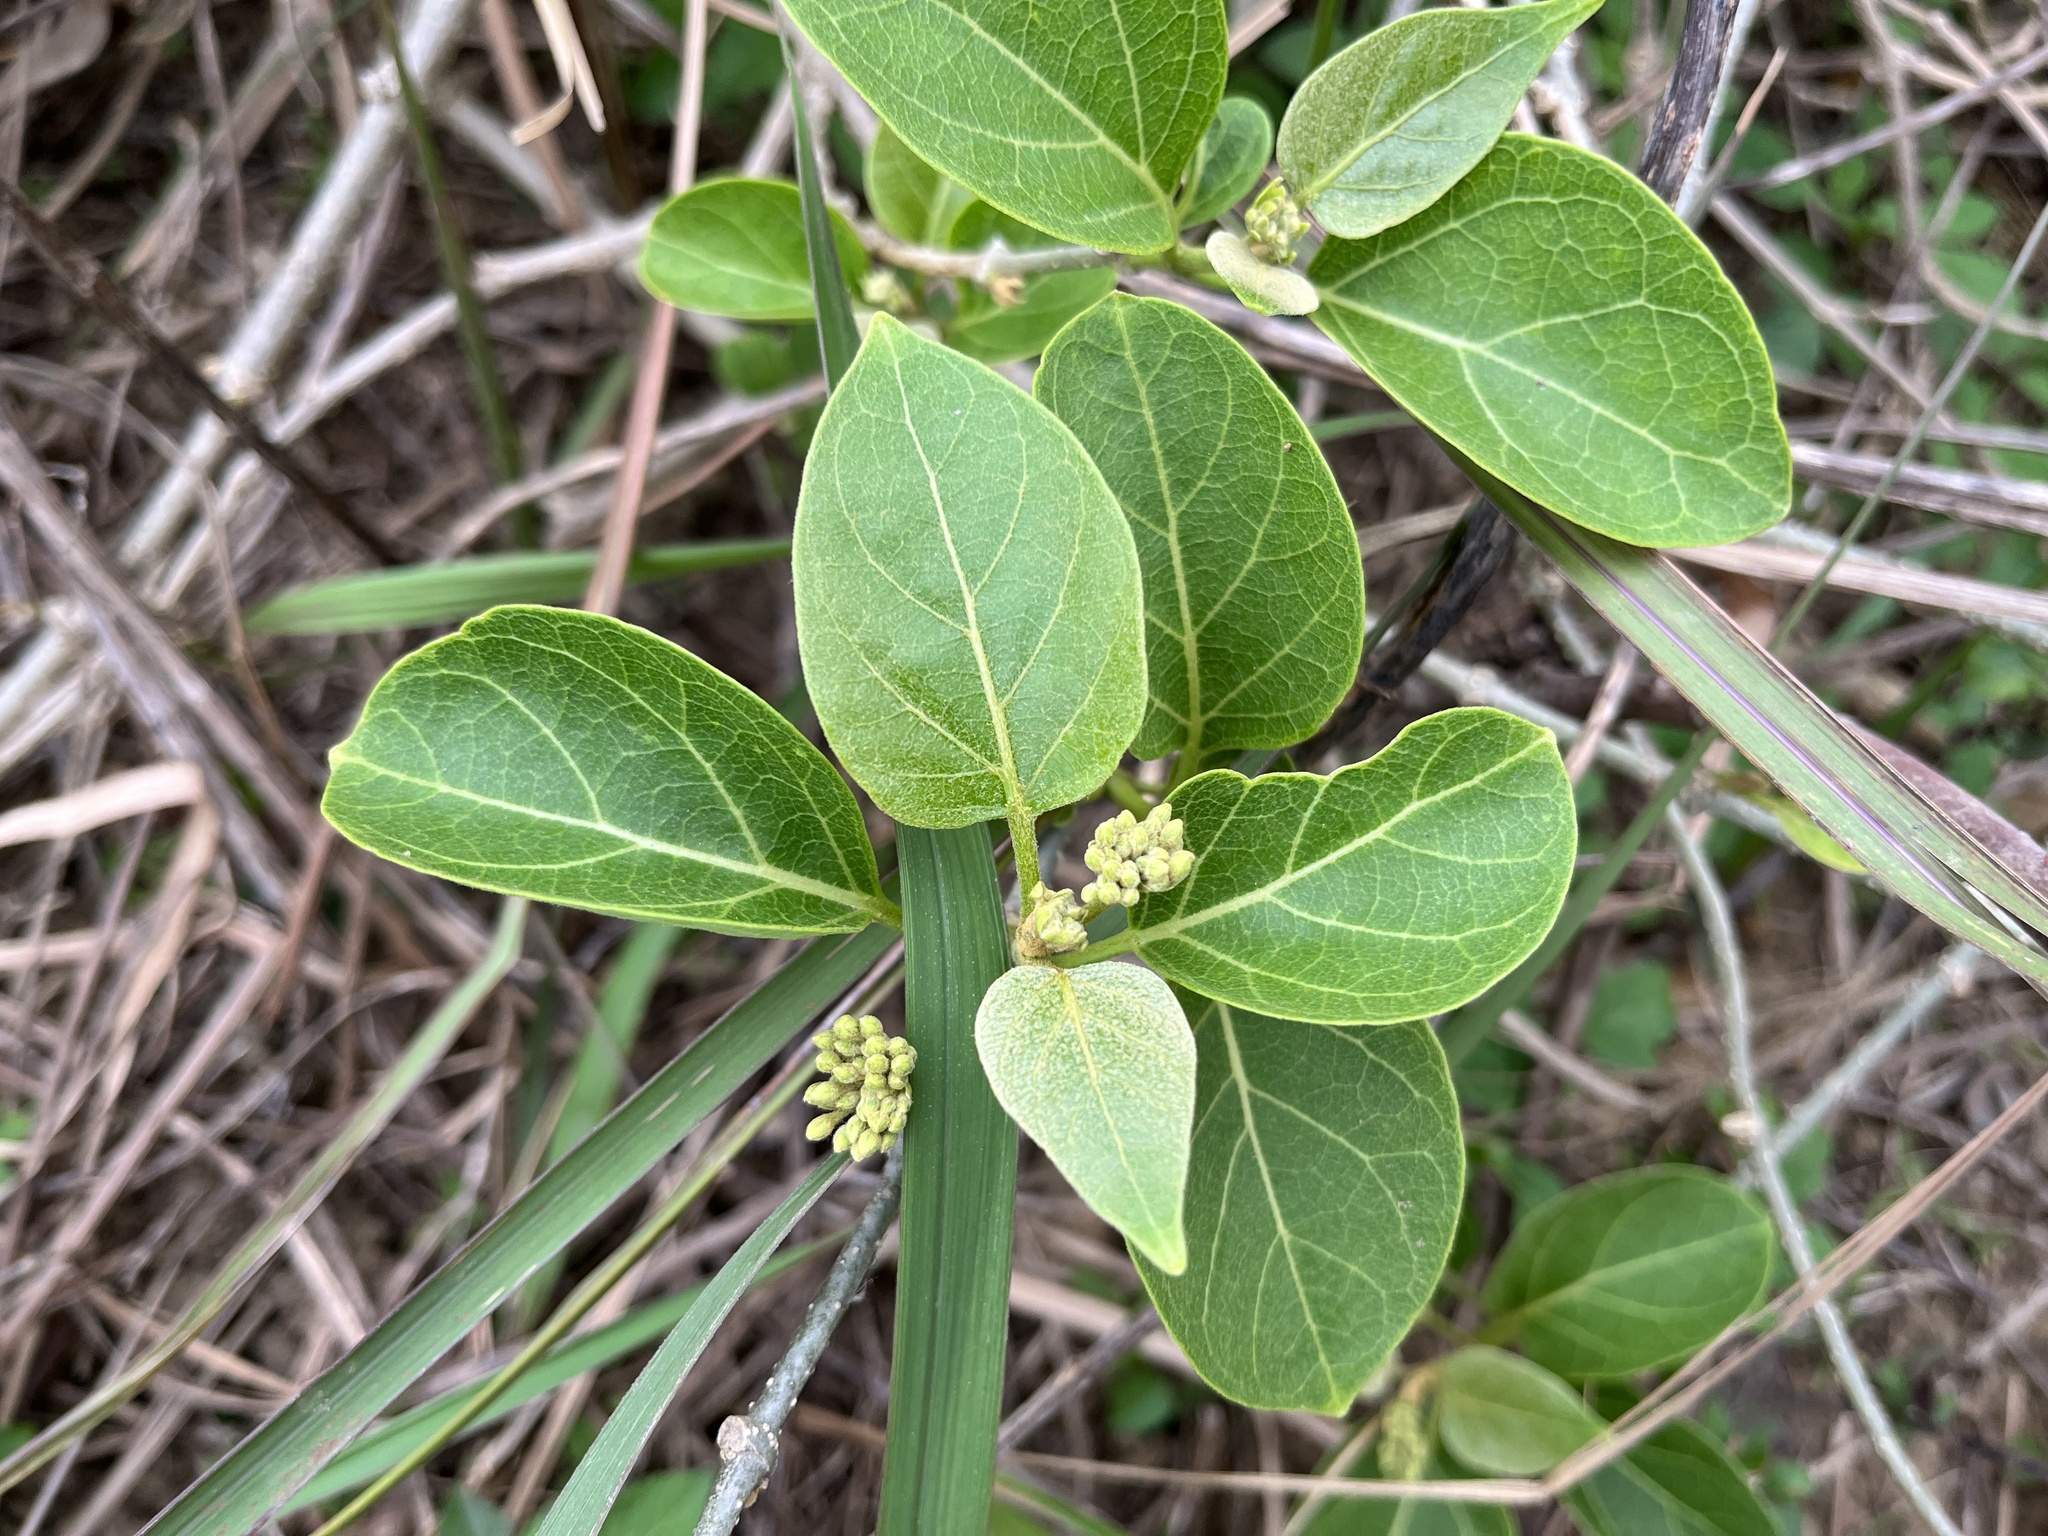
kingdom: Plantae
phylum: Tracheophyta
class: Magnoliopsida
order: Gentianales
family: Apocynaceae
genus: Stephanotis
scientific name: Stephanotis volubilis
